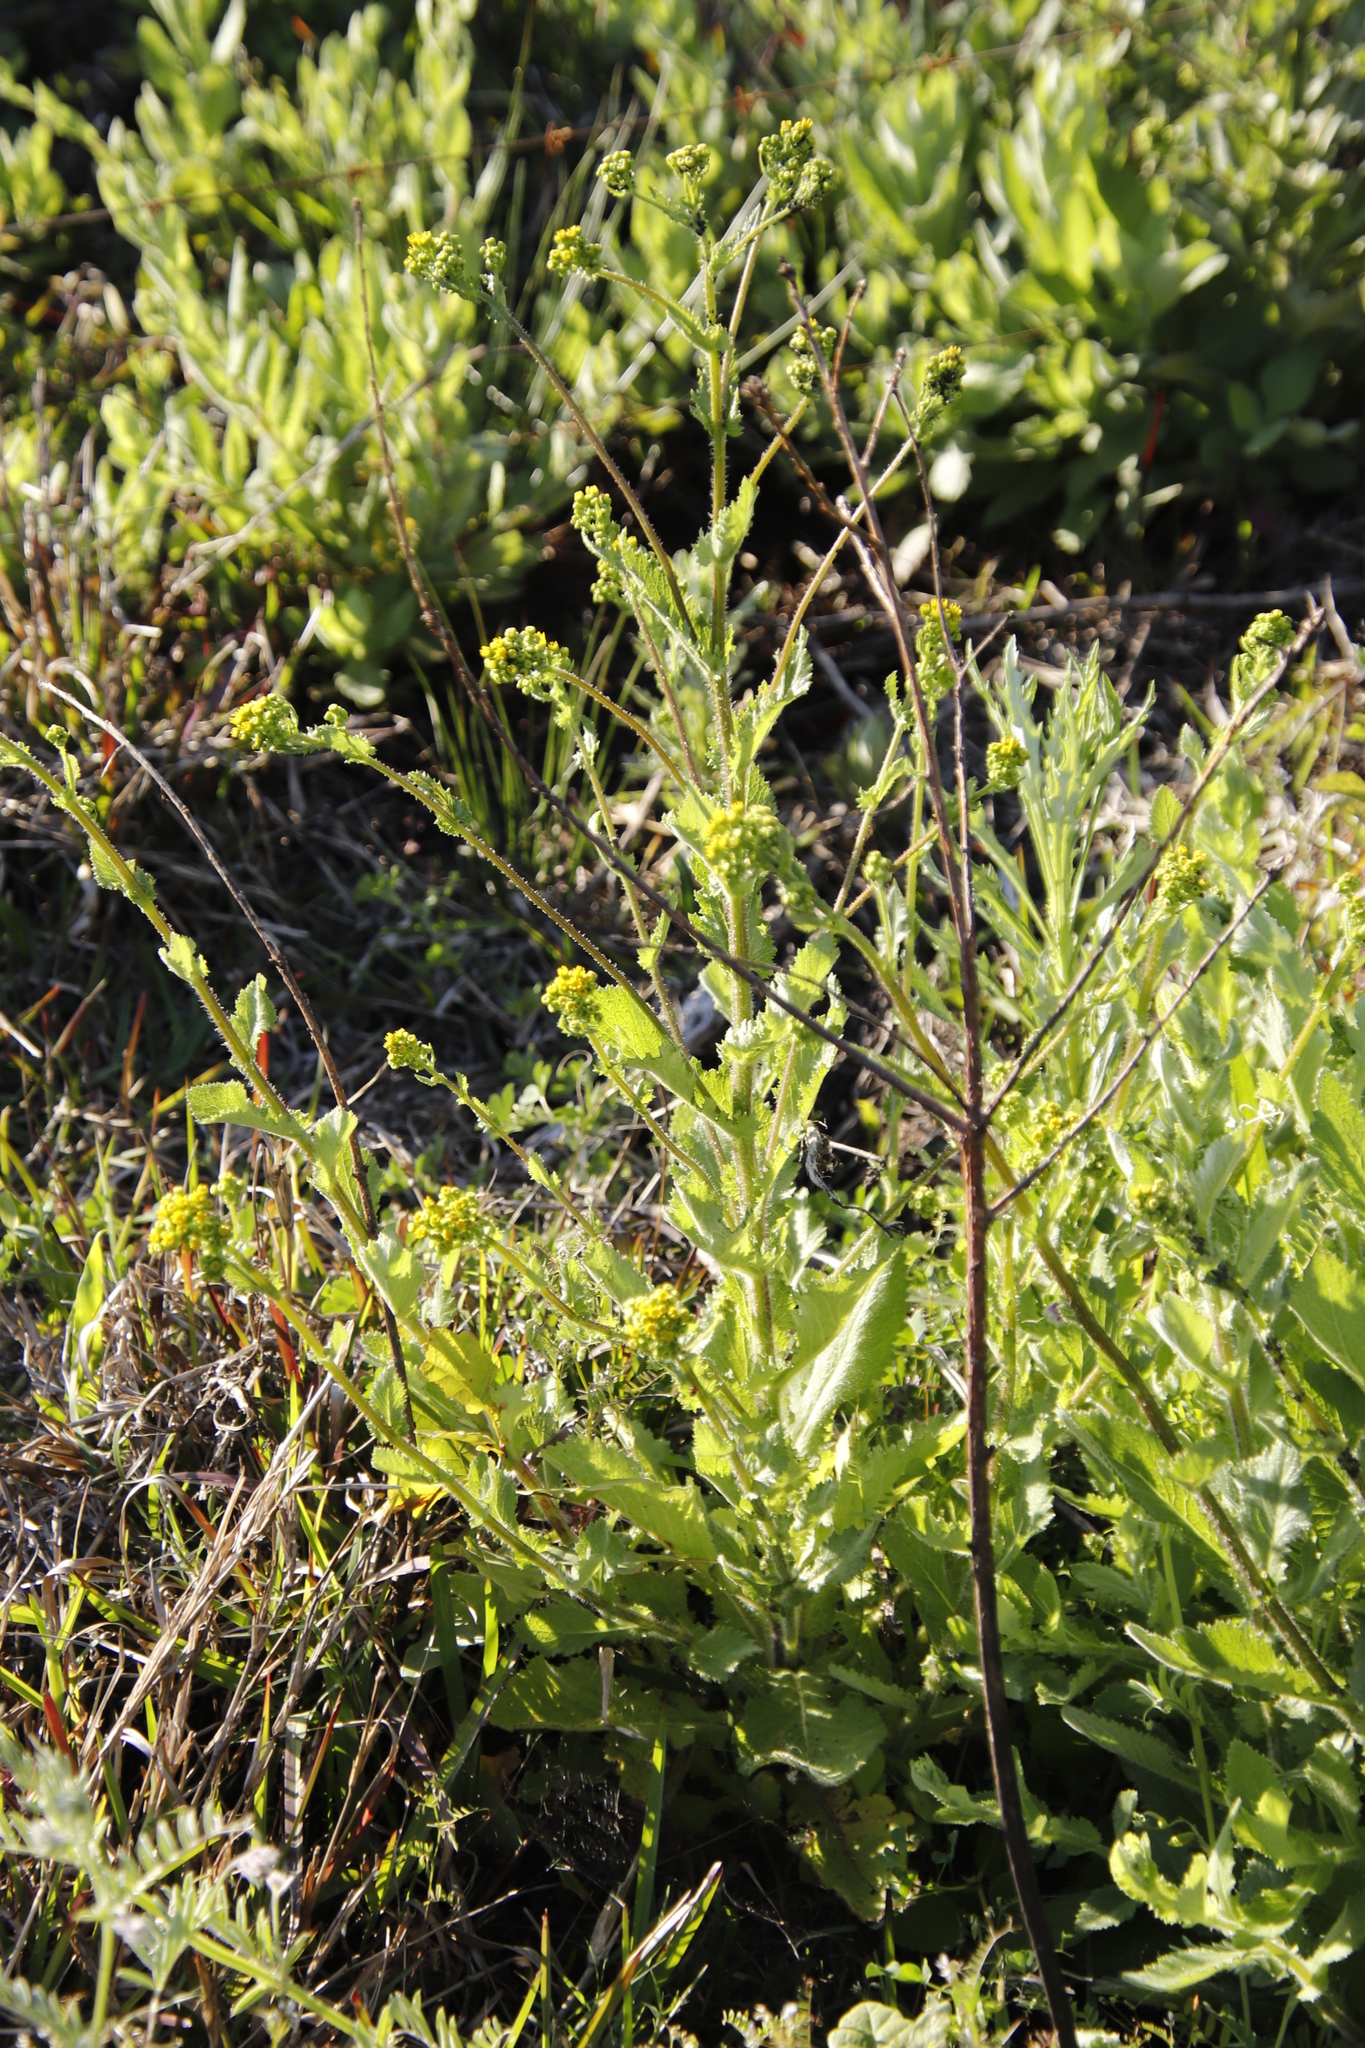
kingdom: Plantae
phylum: Tracheophyta
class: Magnoliopsida
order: Asterales
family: Asteraceae
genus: Senecio
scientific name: Senecio subcanescens
